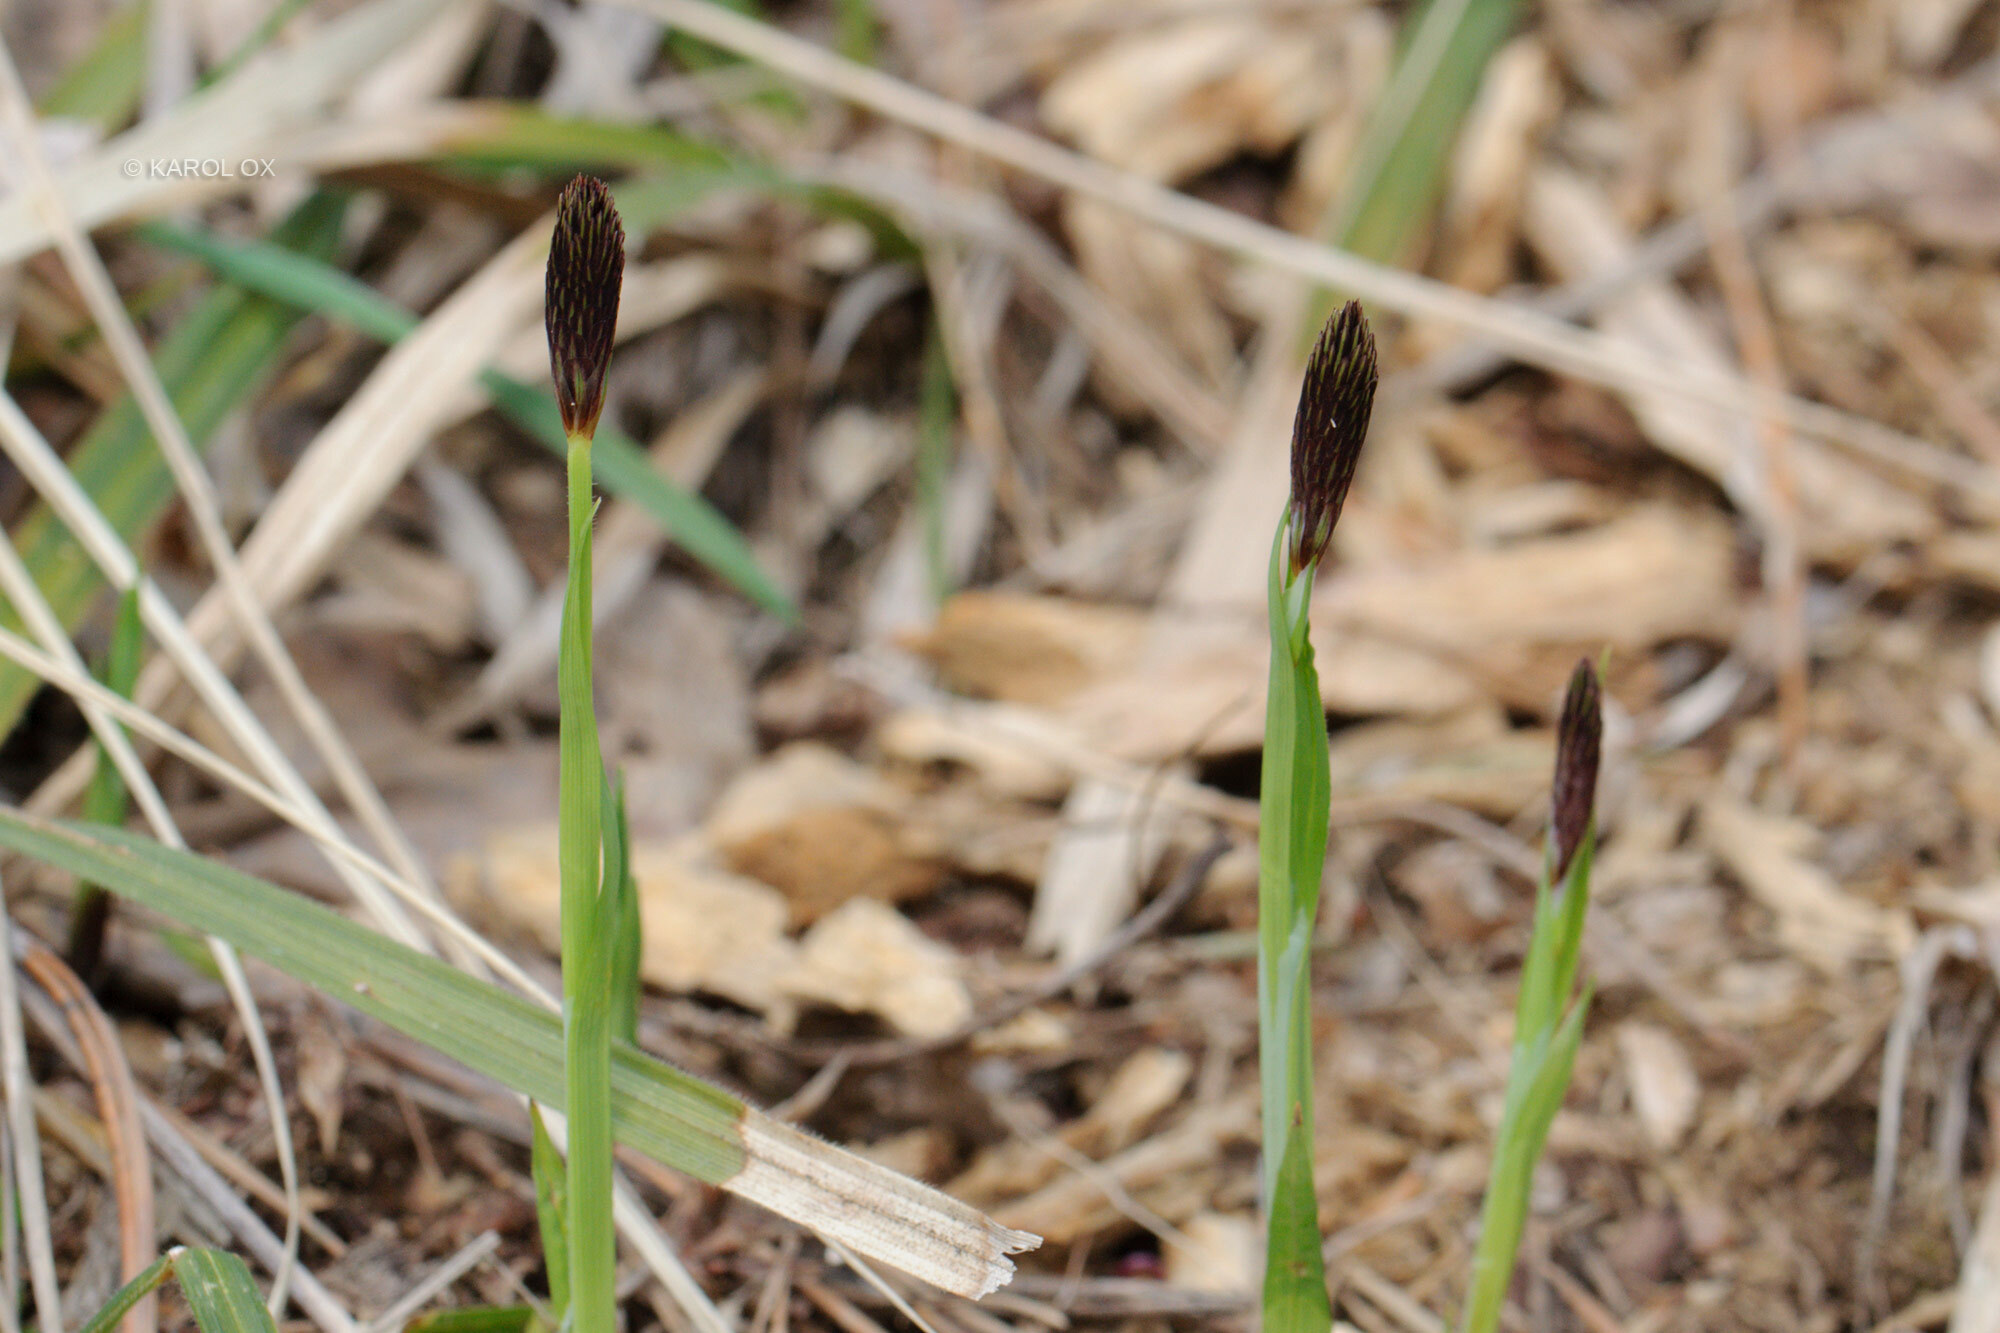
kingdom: Plantae
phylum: Tracheophyta
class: Liliopsida
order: Poales
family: Cyperaceae
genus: Carex
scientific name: Carex pilosa
